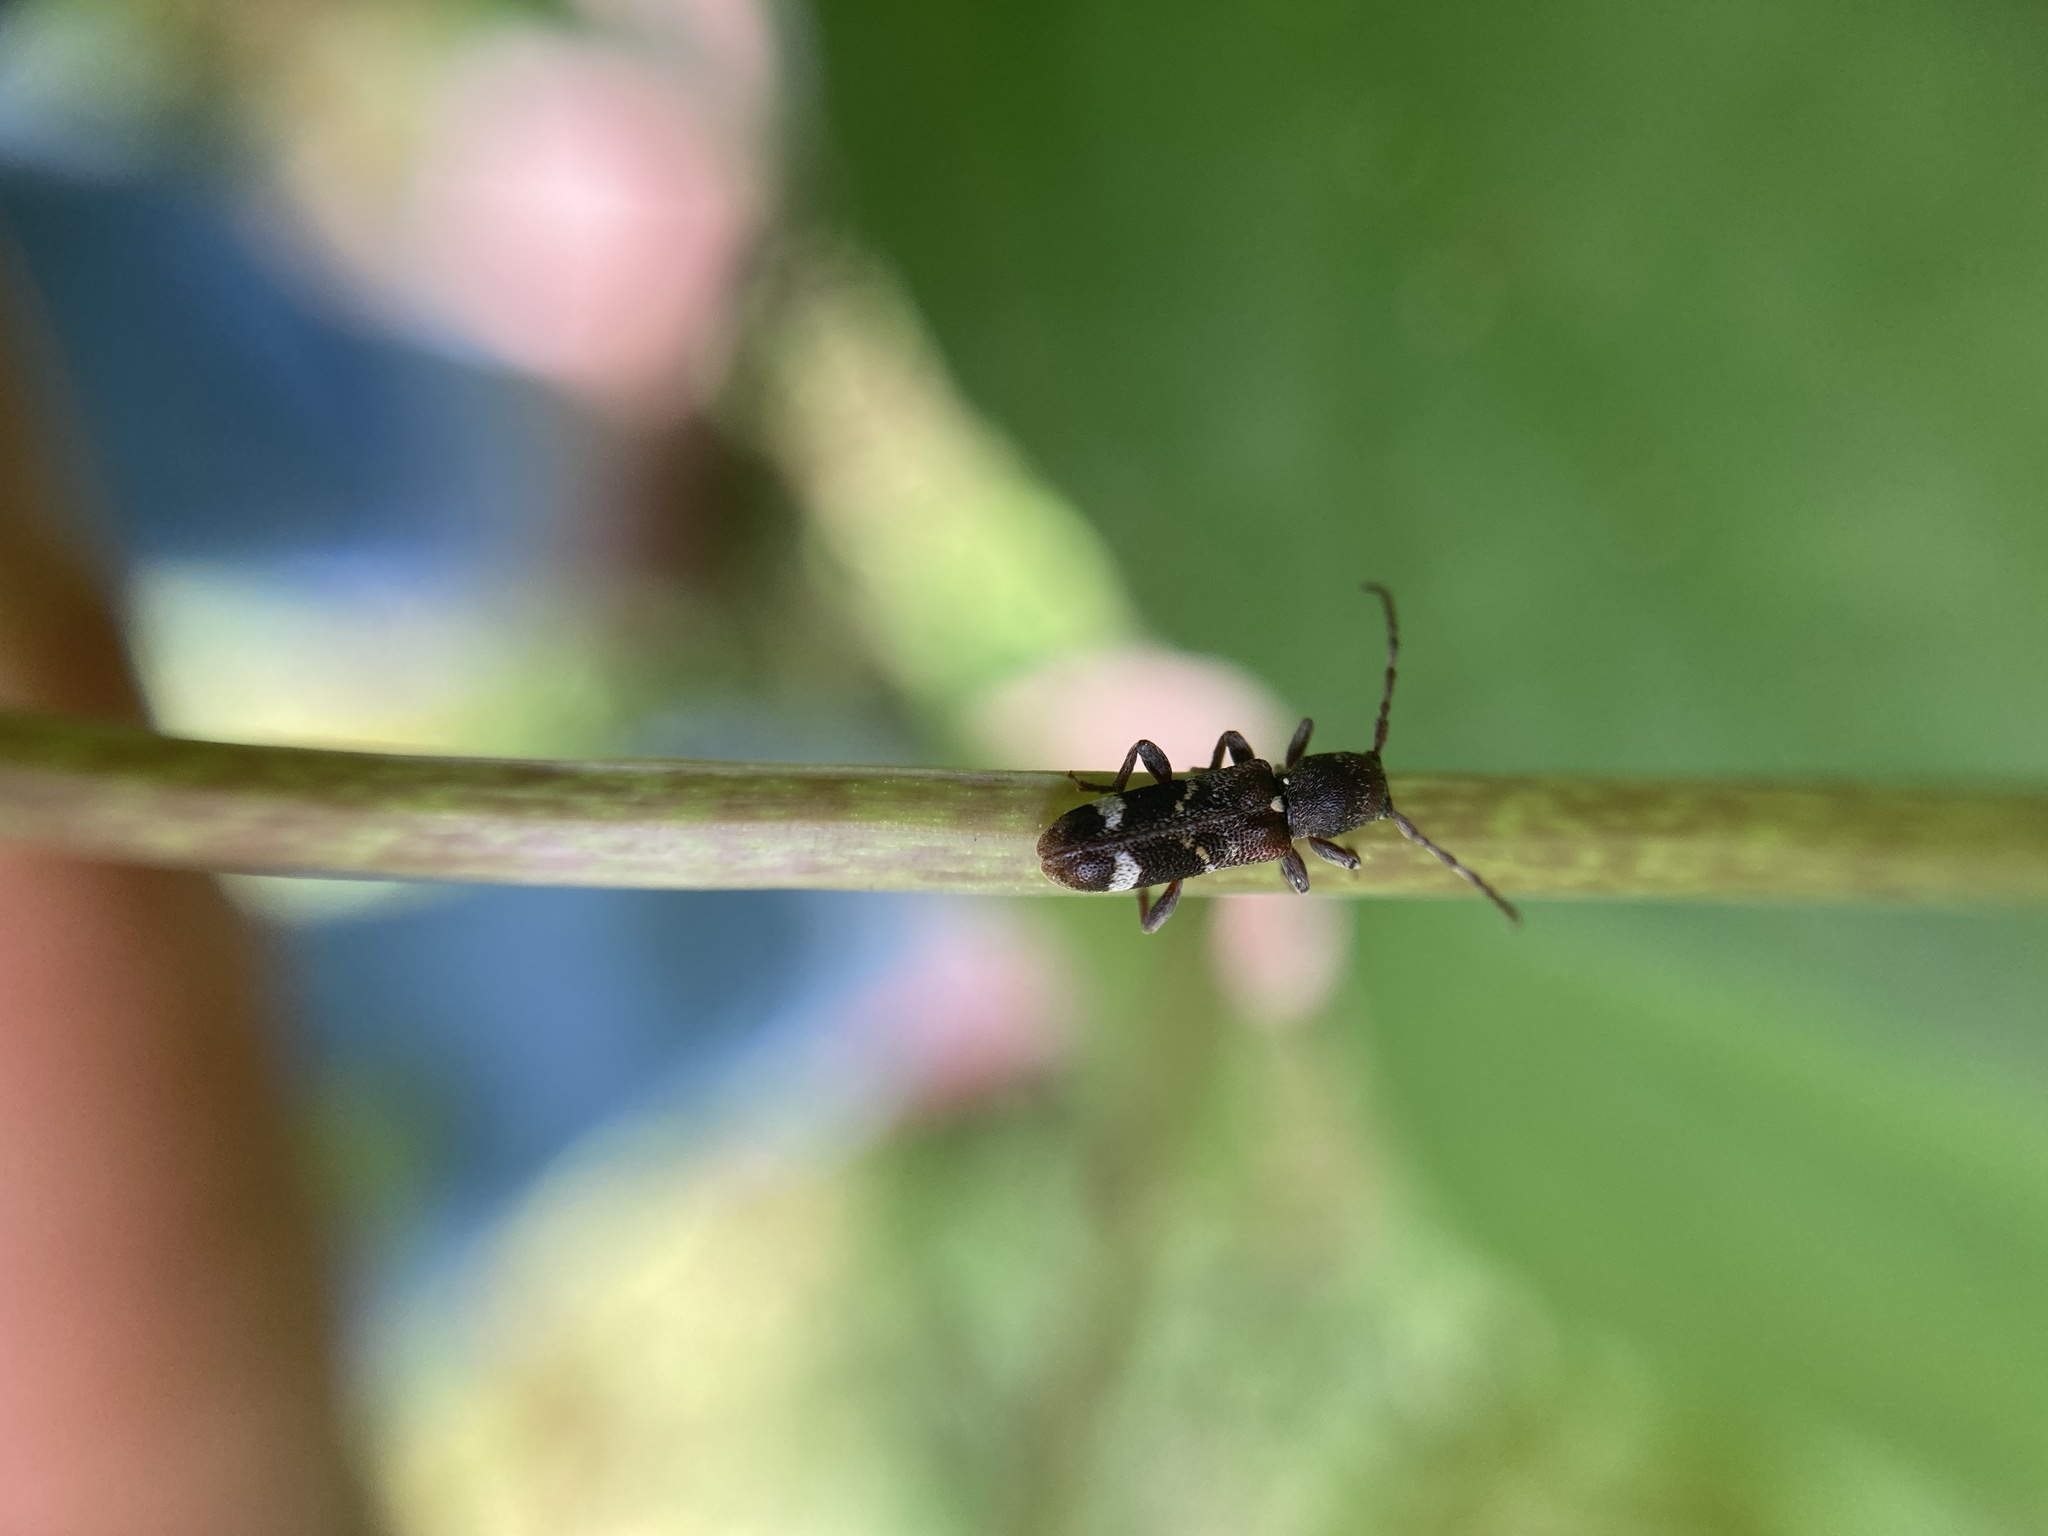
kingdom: Animalia
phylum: Arthropoda
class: Insecta
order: Coleoptera
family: Cerambycidae
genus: Psenocerus
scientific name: Psenocerus supernotatus
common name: Currant-tip borer
